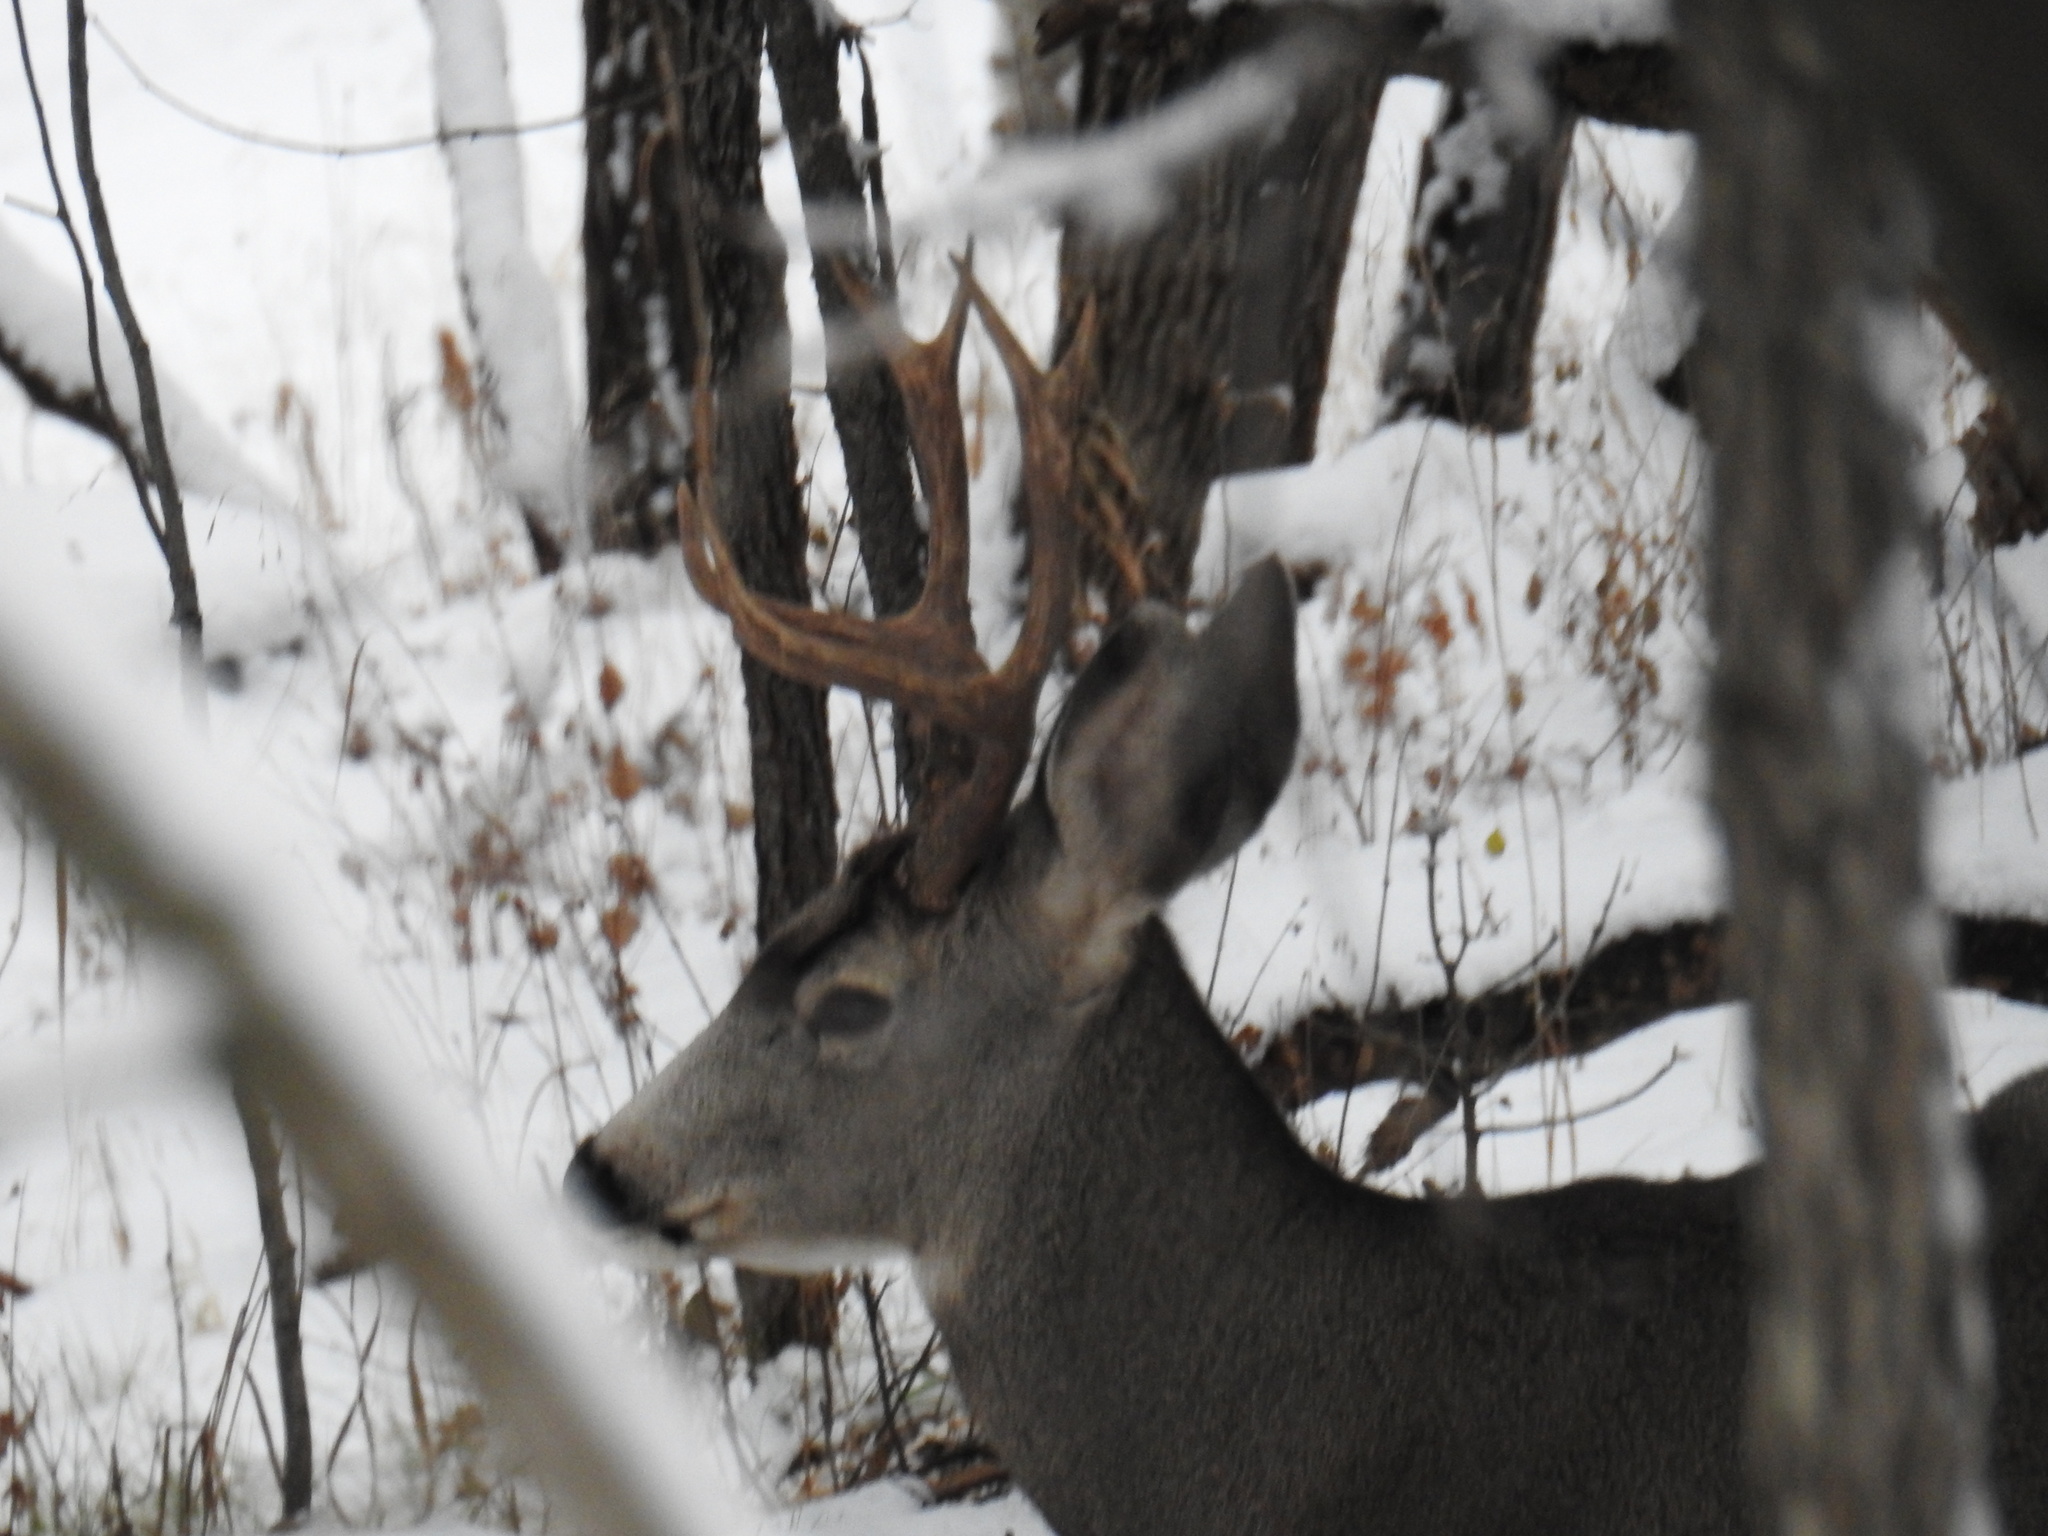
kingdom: Animalia
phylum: Chordata
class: Mammalia
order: Artiodactyla
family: Cervidae
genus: Odocoileus
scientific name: Odocoileus hemionus
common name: Mule deer
